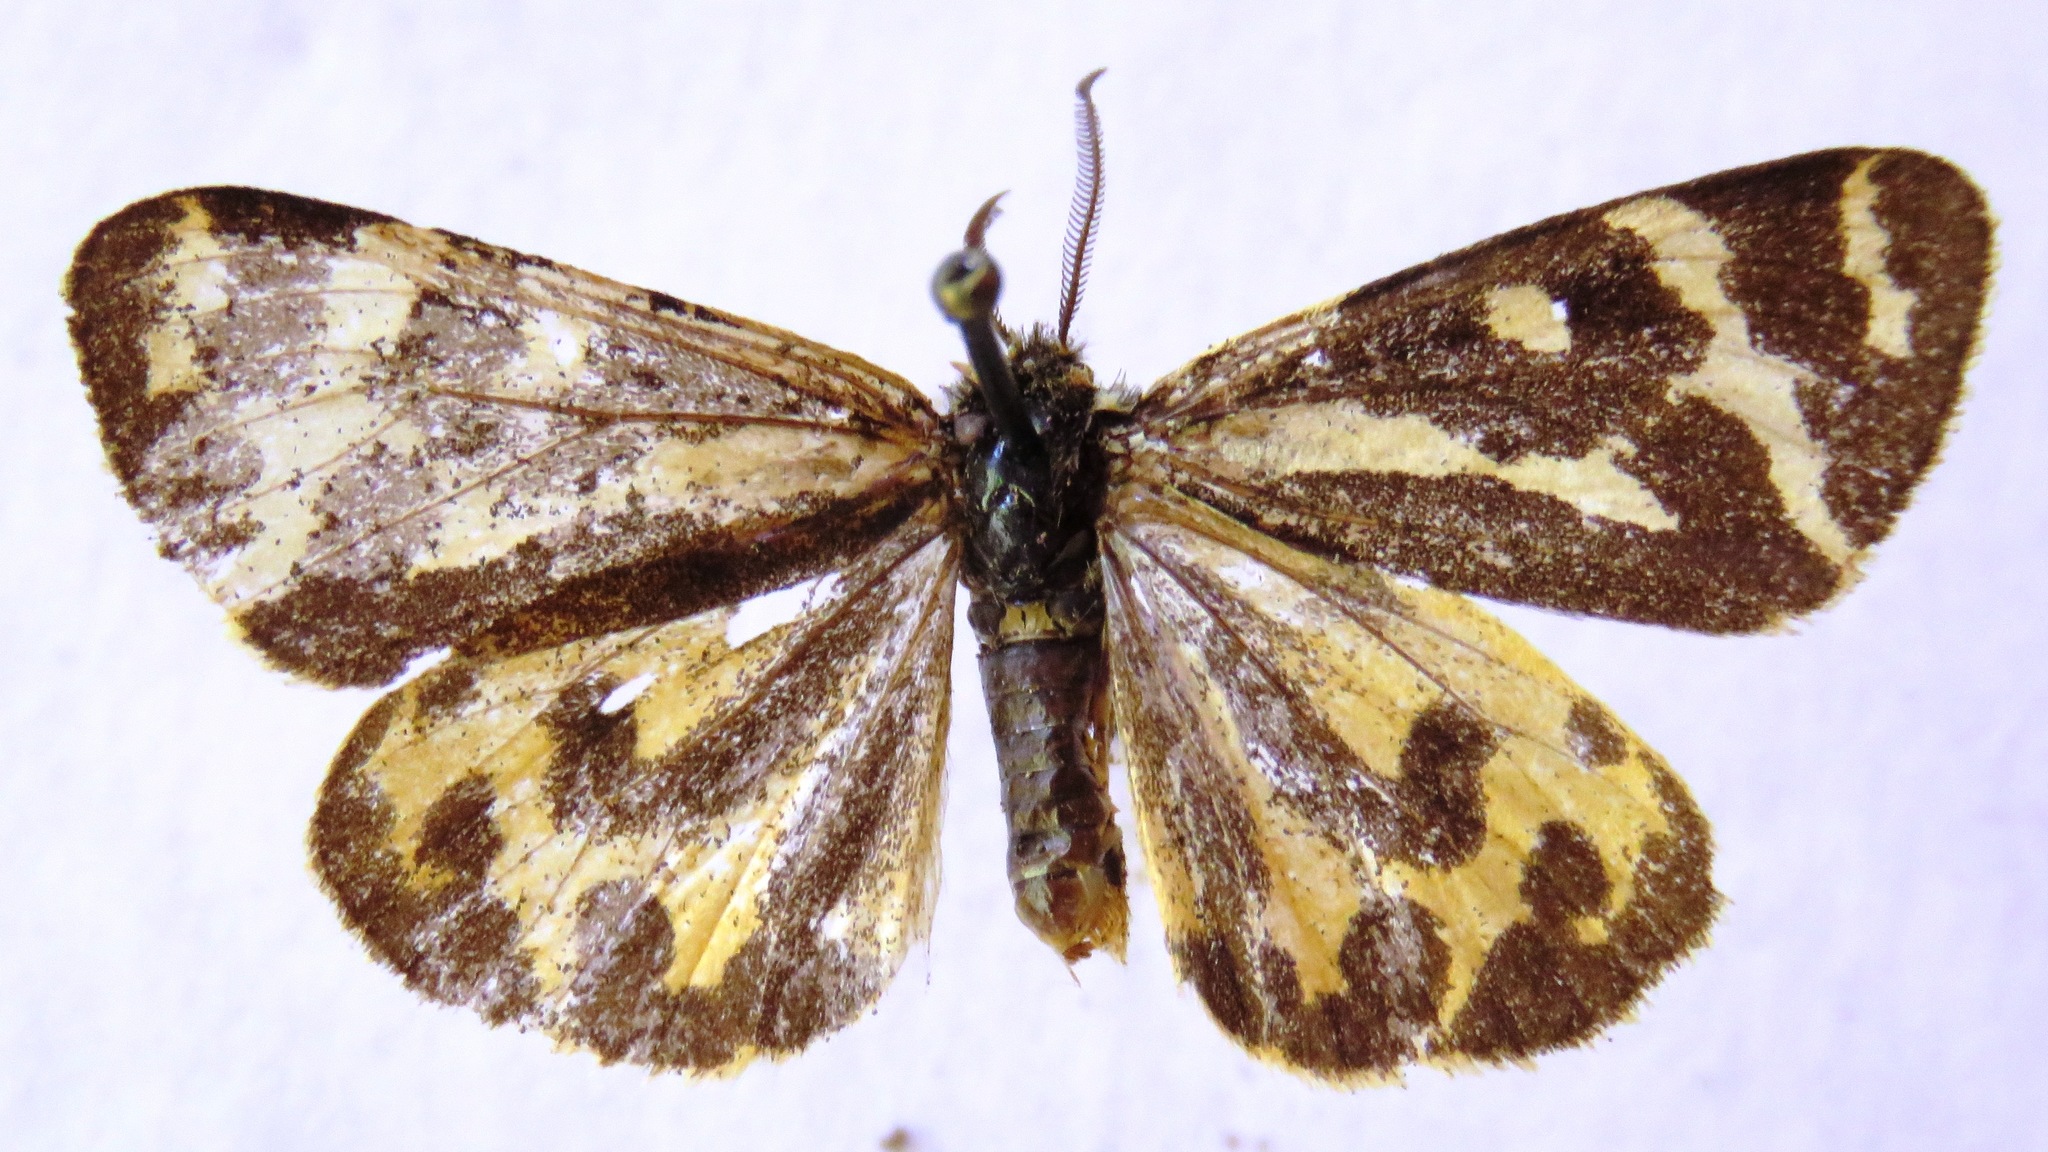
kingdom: Animalia
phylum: Arthropoda
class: Insecta
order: Lepidoptera
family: Erebidae
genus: Parasemia
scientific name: Parasemia plantaginis
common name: Wood tiger
